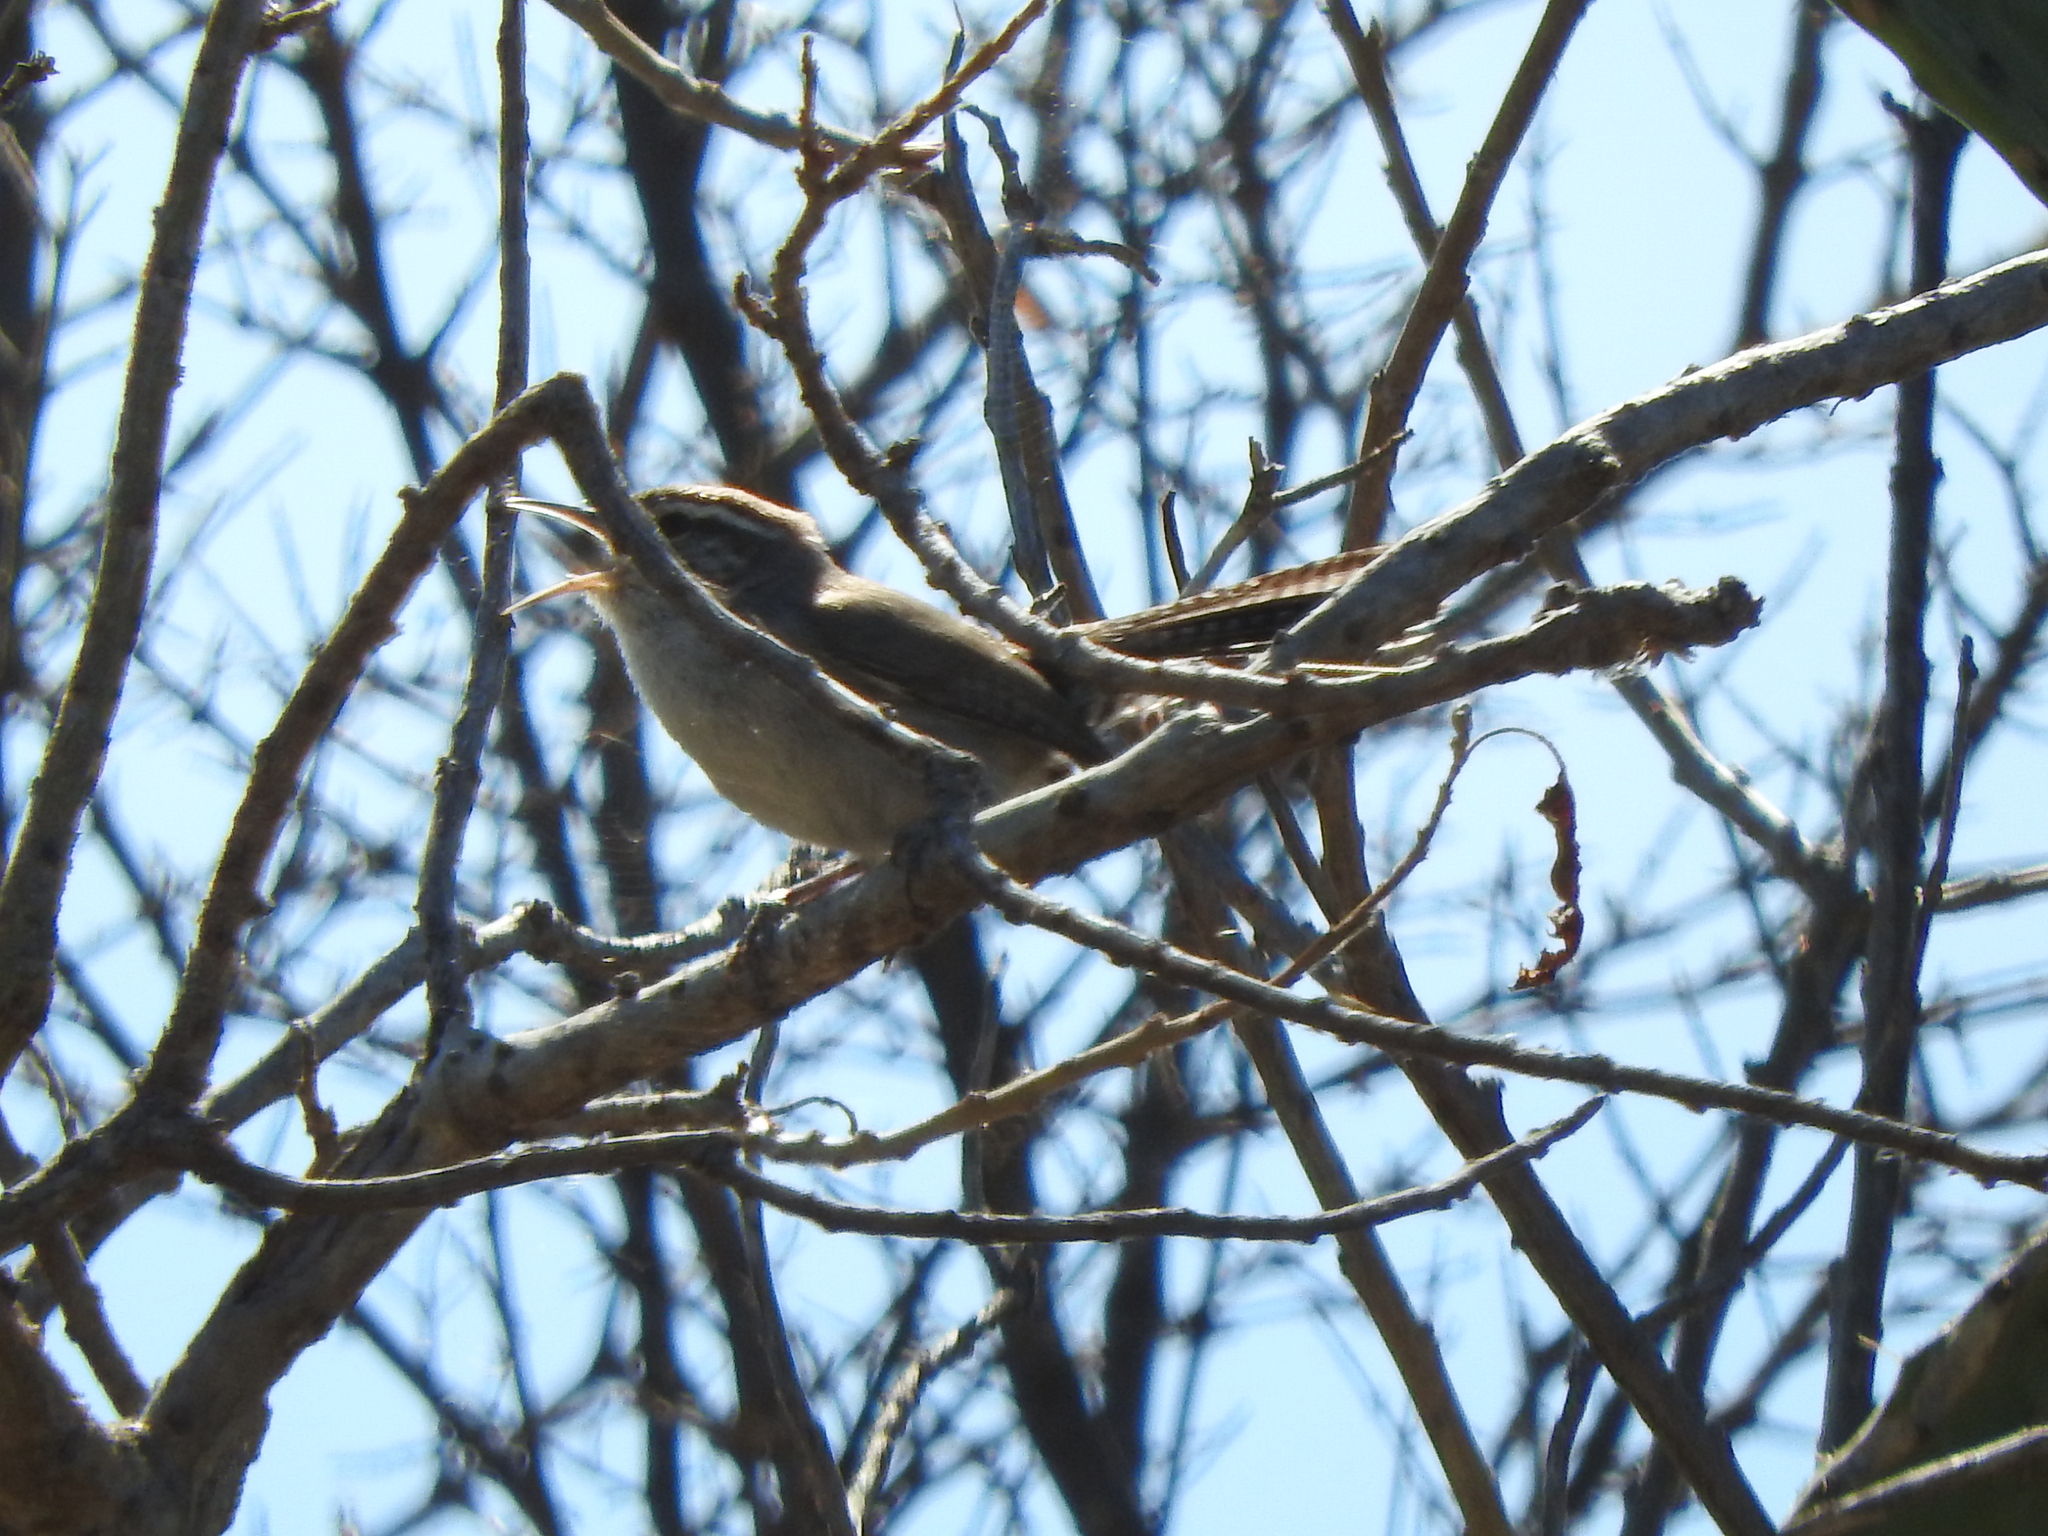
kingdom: Animalia
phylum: Chordata
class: Aves
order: Passeriformes
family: Troglodytidae
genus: Thryomanes
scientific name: Thryomanes bewickii
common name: Bewick's wren
